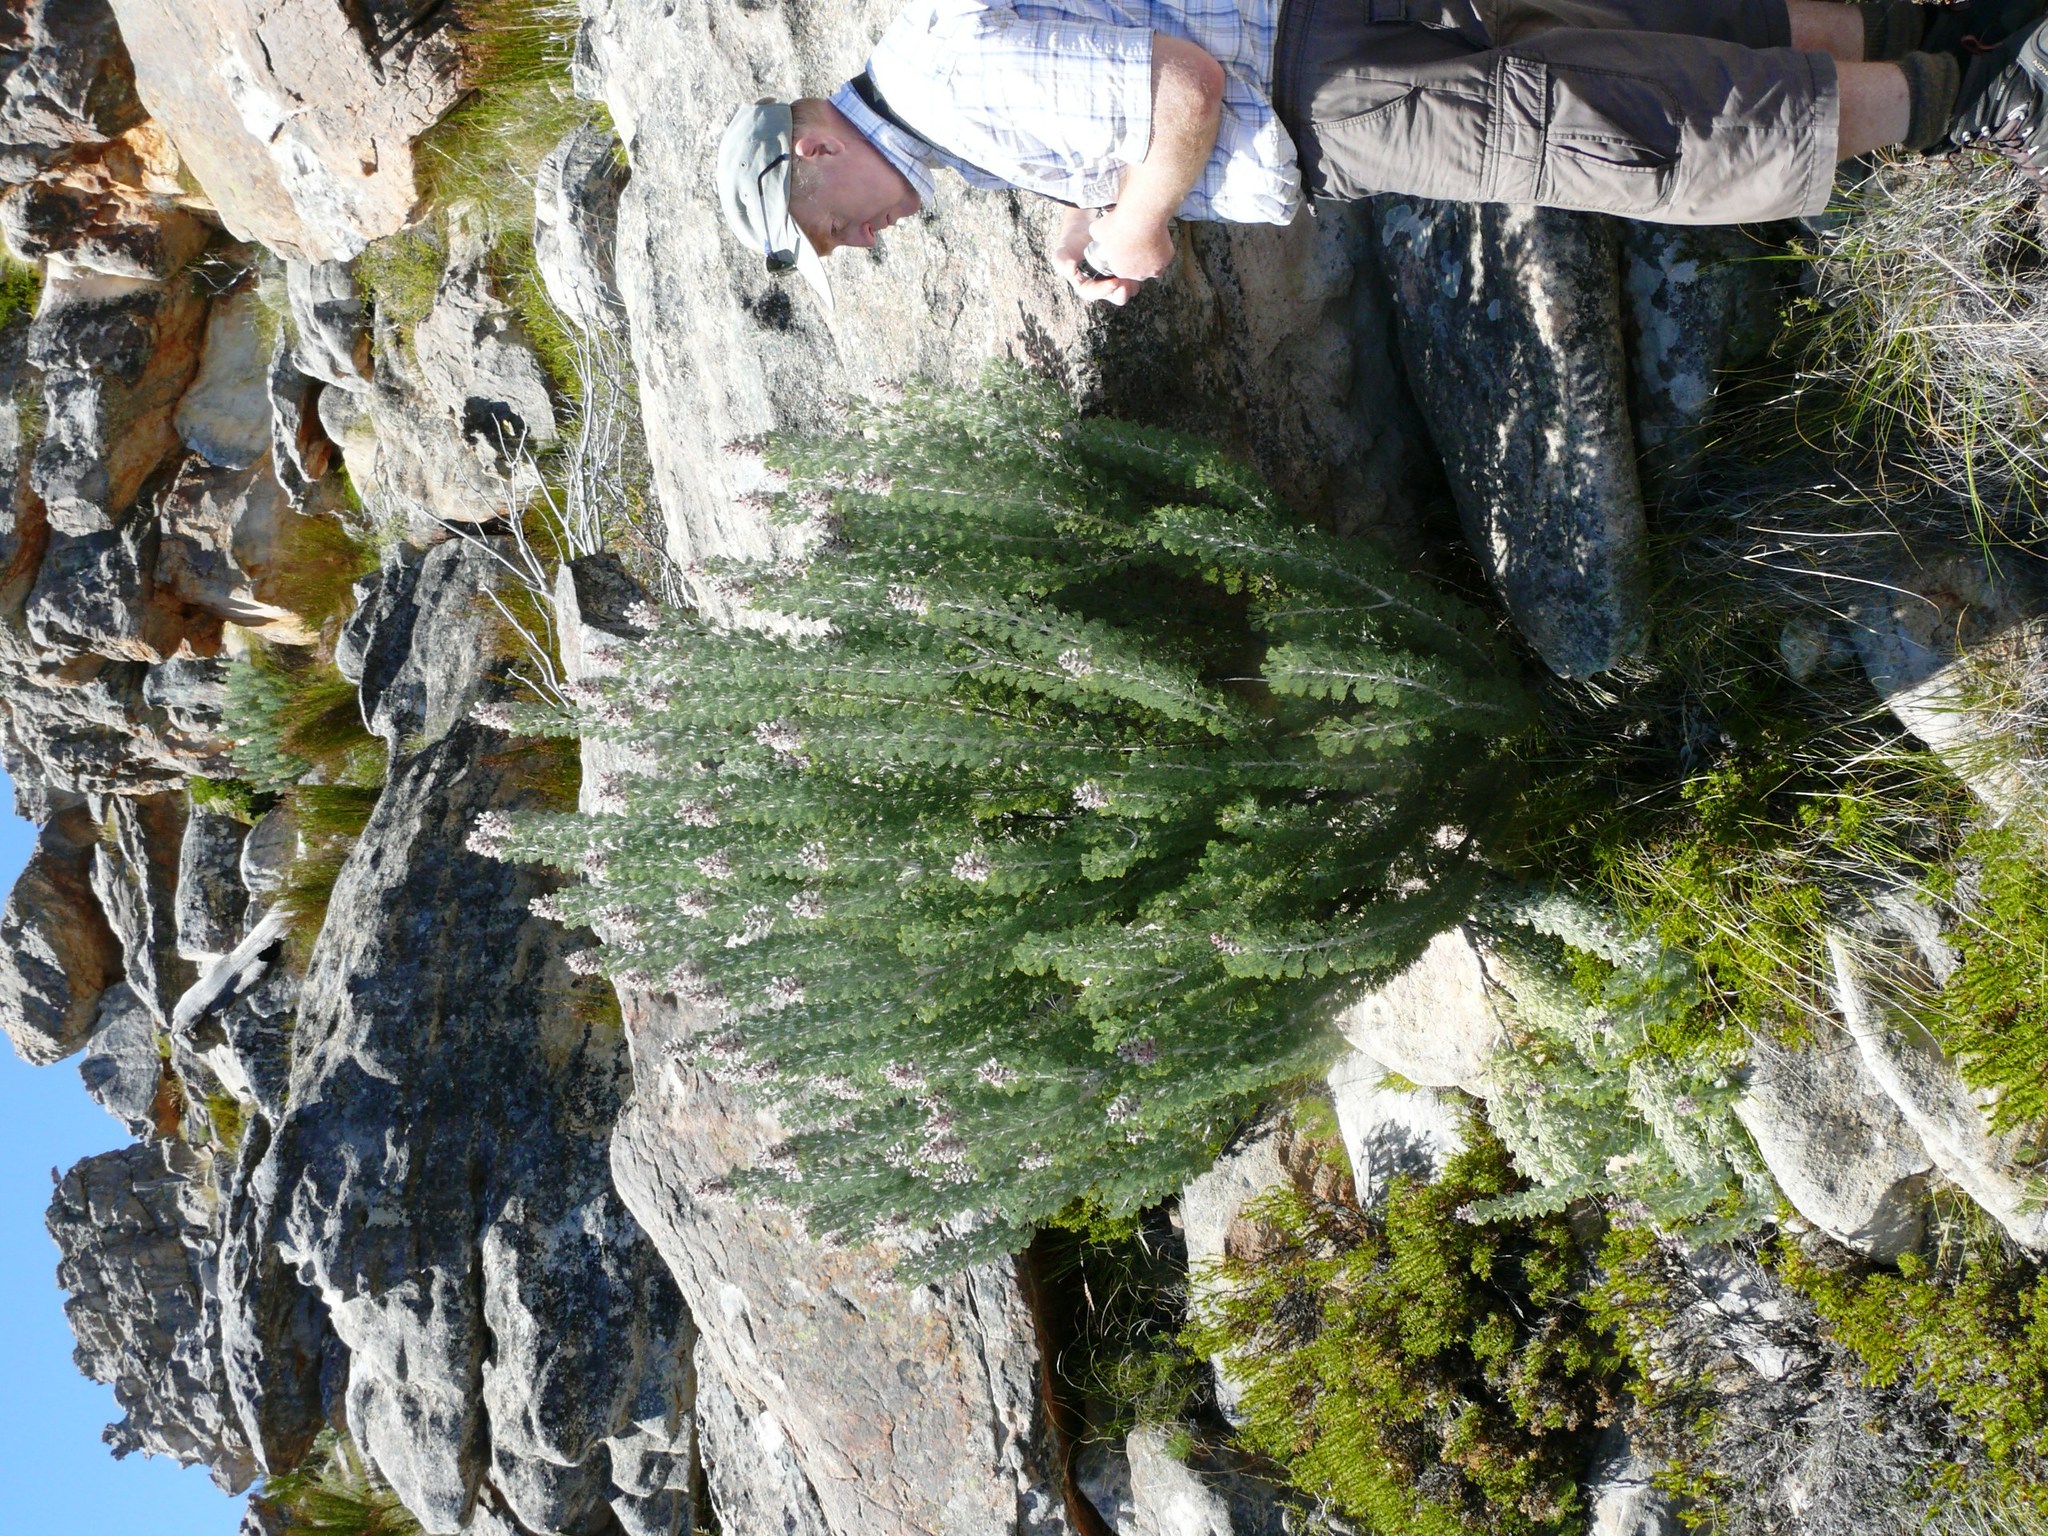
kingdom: Plantae
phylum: Tracheophyta
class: Magnoliopsida
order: Proteales
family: Proteaceae
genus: Paranomus
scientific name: Paranomus tomentosus
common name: Hairy-leaf tree sceptre
